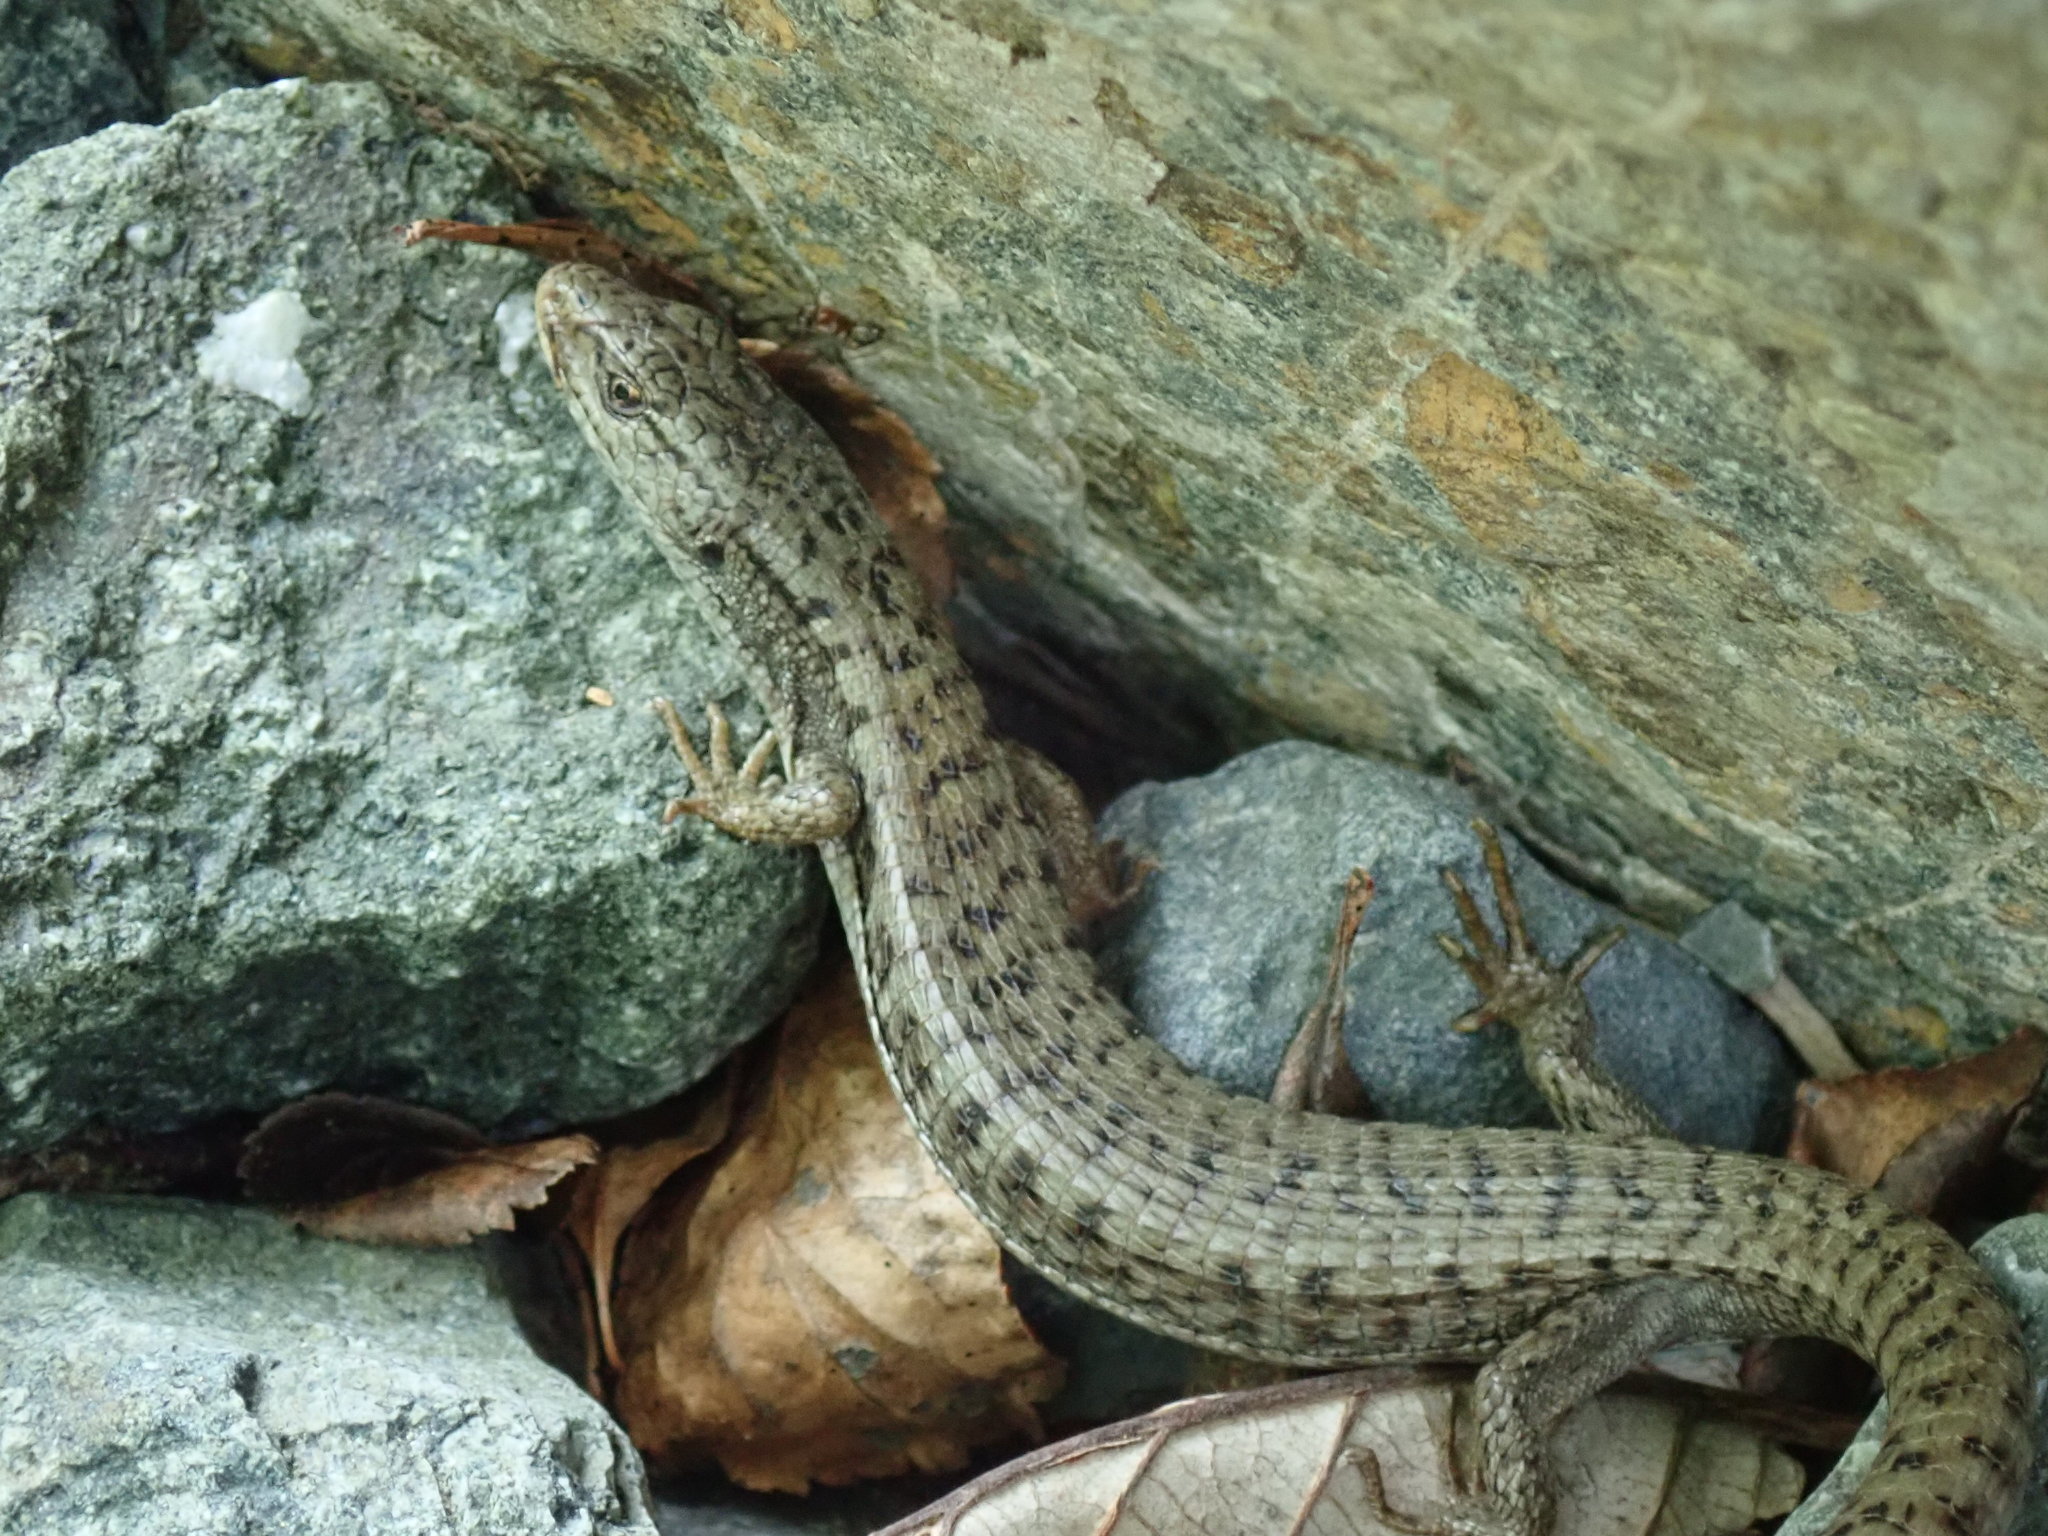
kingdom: Animalia
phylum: Chordata
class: Squamata
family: Anguidae
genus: Elgaria
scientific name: Elgaria coerulea
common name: Northern alligator lizard
